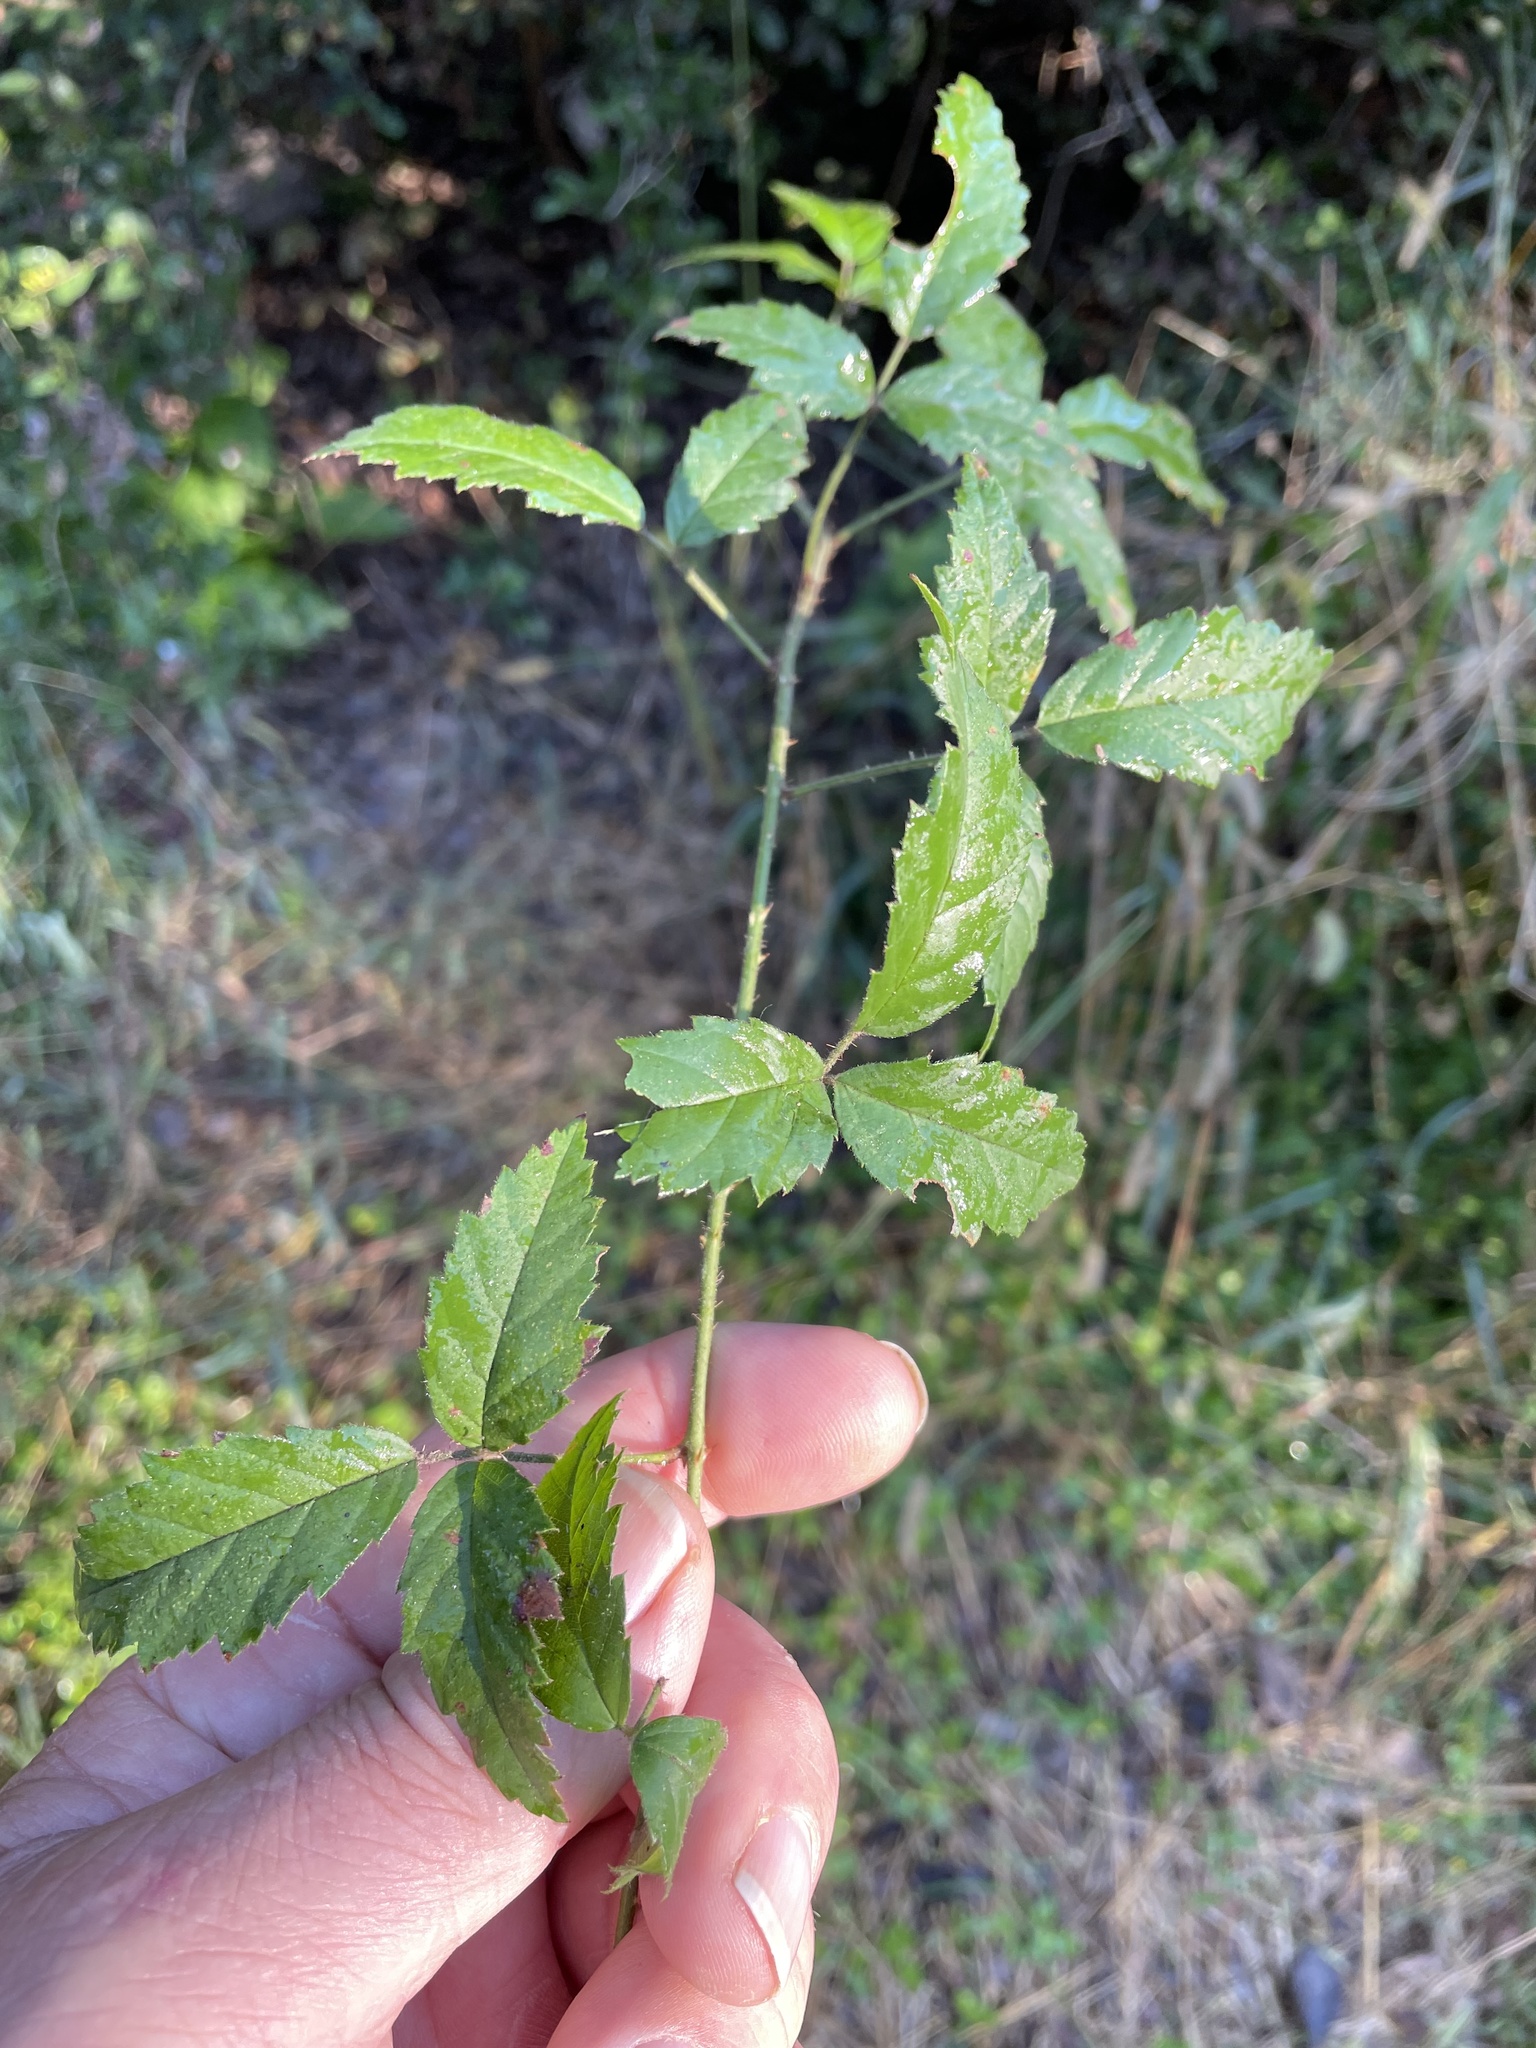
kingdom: Plantae
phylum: Tracheophyta
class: Magnoliopsida
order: Rosales
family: Rosaceae
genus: Rubus
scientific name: Rubus trivialis
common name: Southern dewberry
